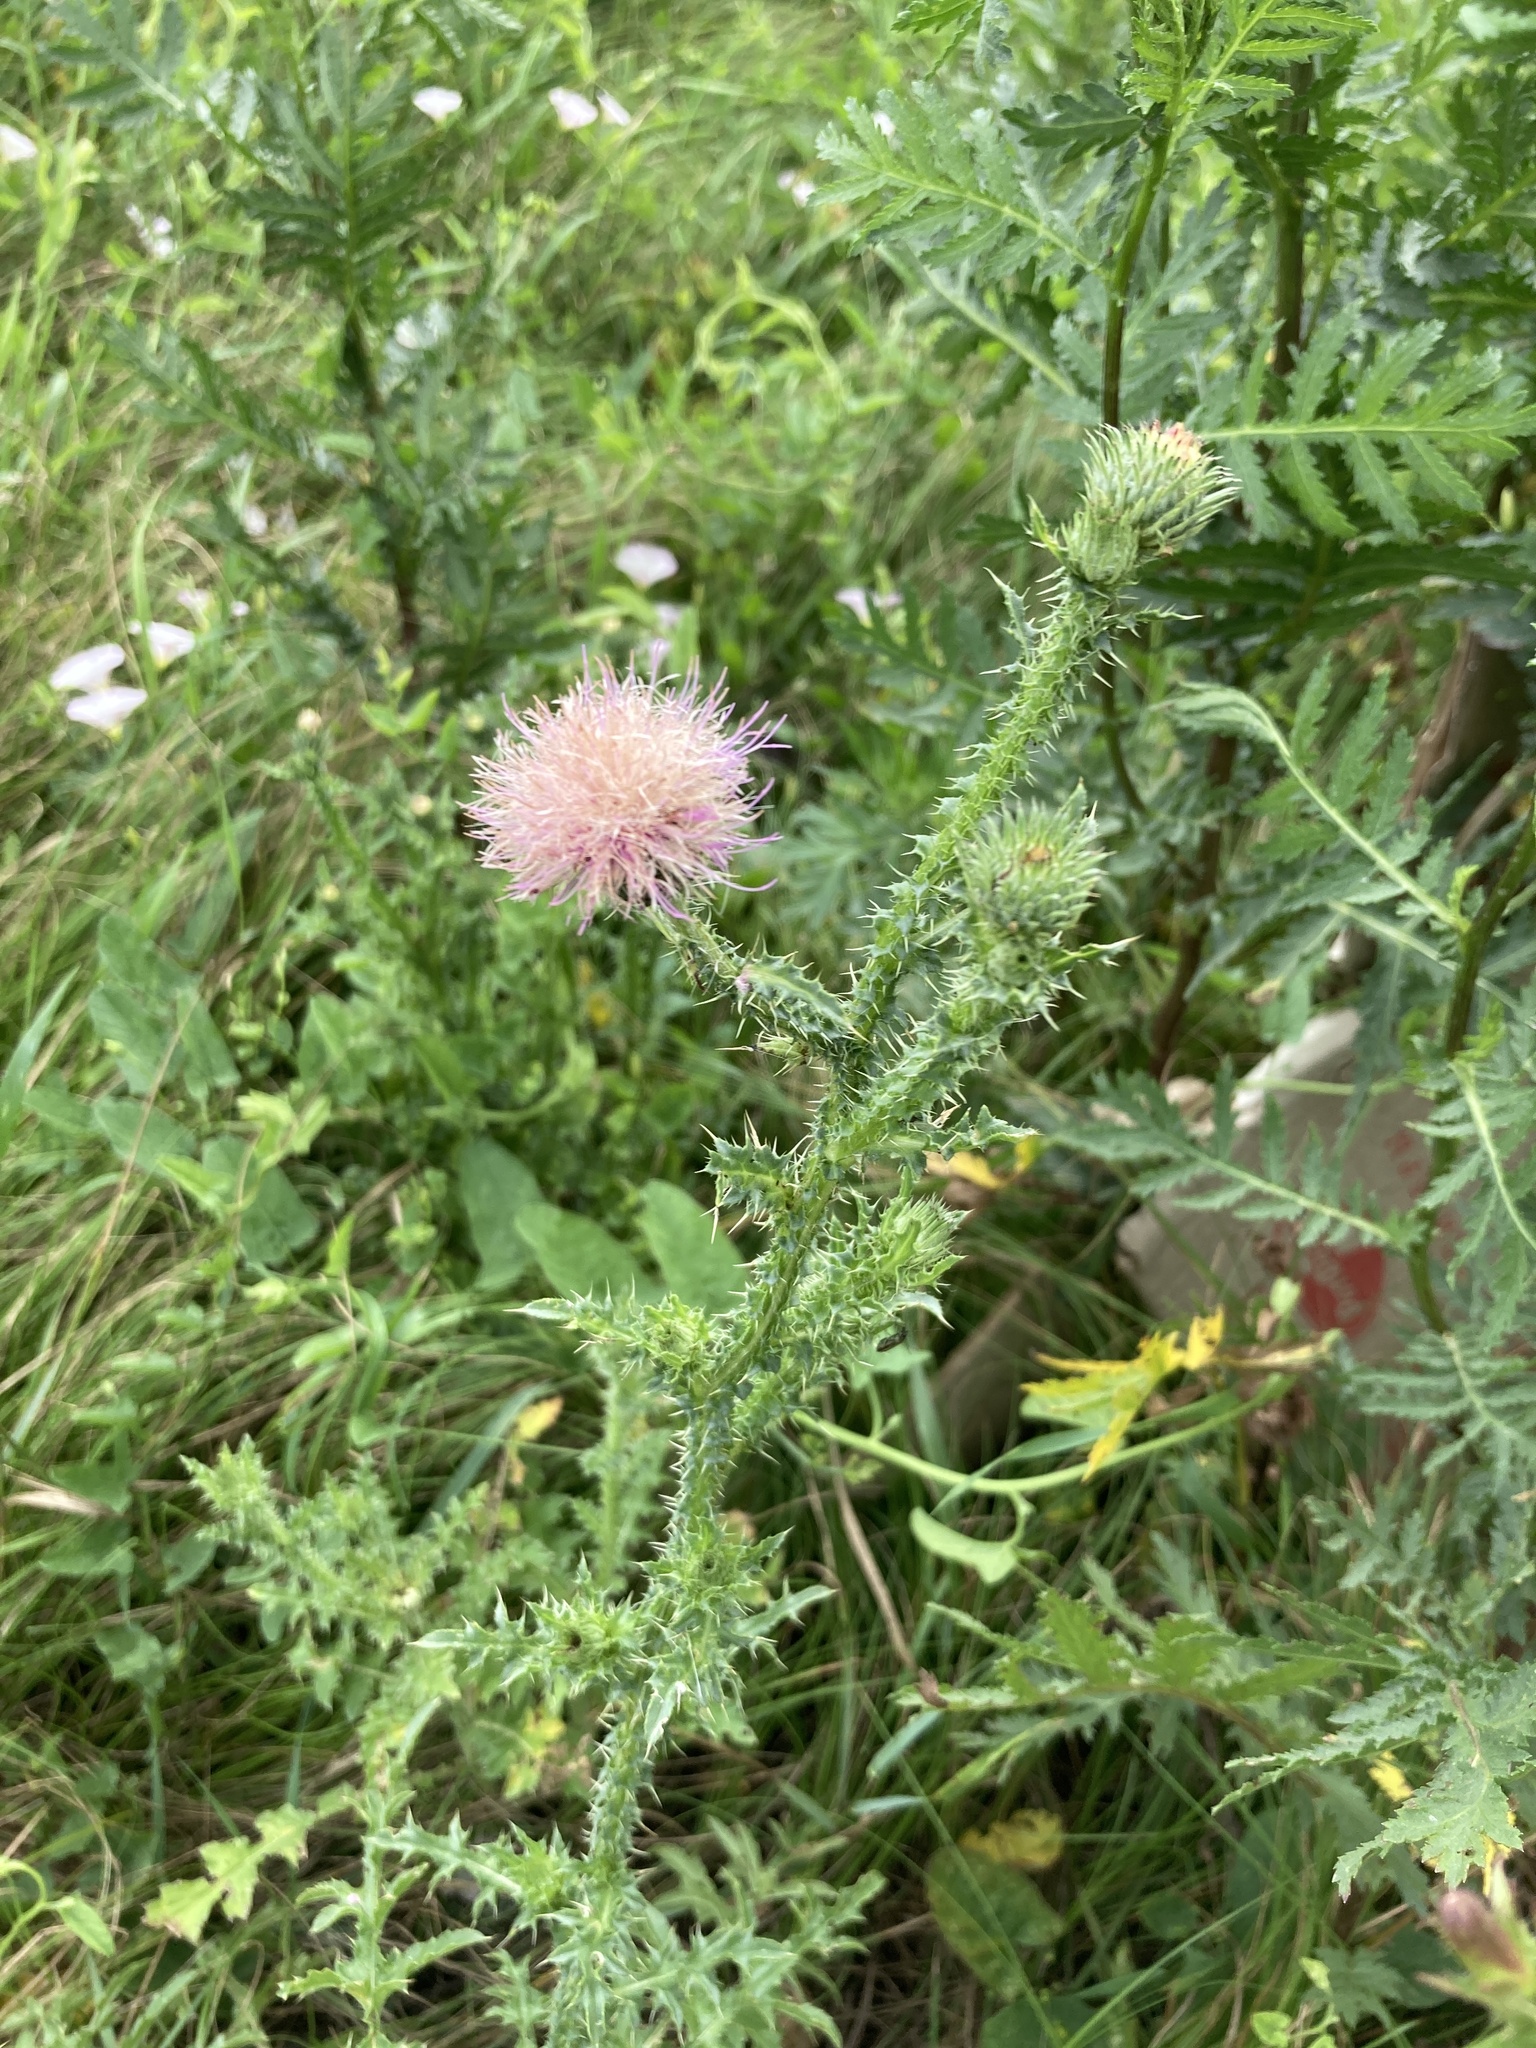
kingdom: Plantae
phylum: Tracheophyta
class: Magnoliopsida
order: Asterales
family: Asteraceae
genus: Carduus
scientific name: Carduus acanthoides
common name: Plumeless thistle
